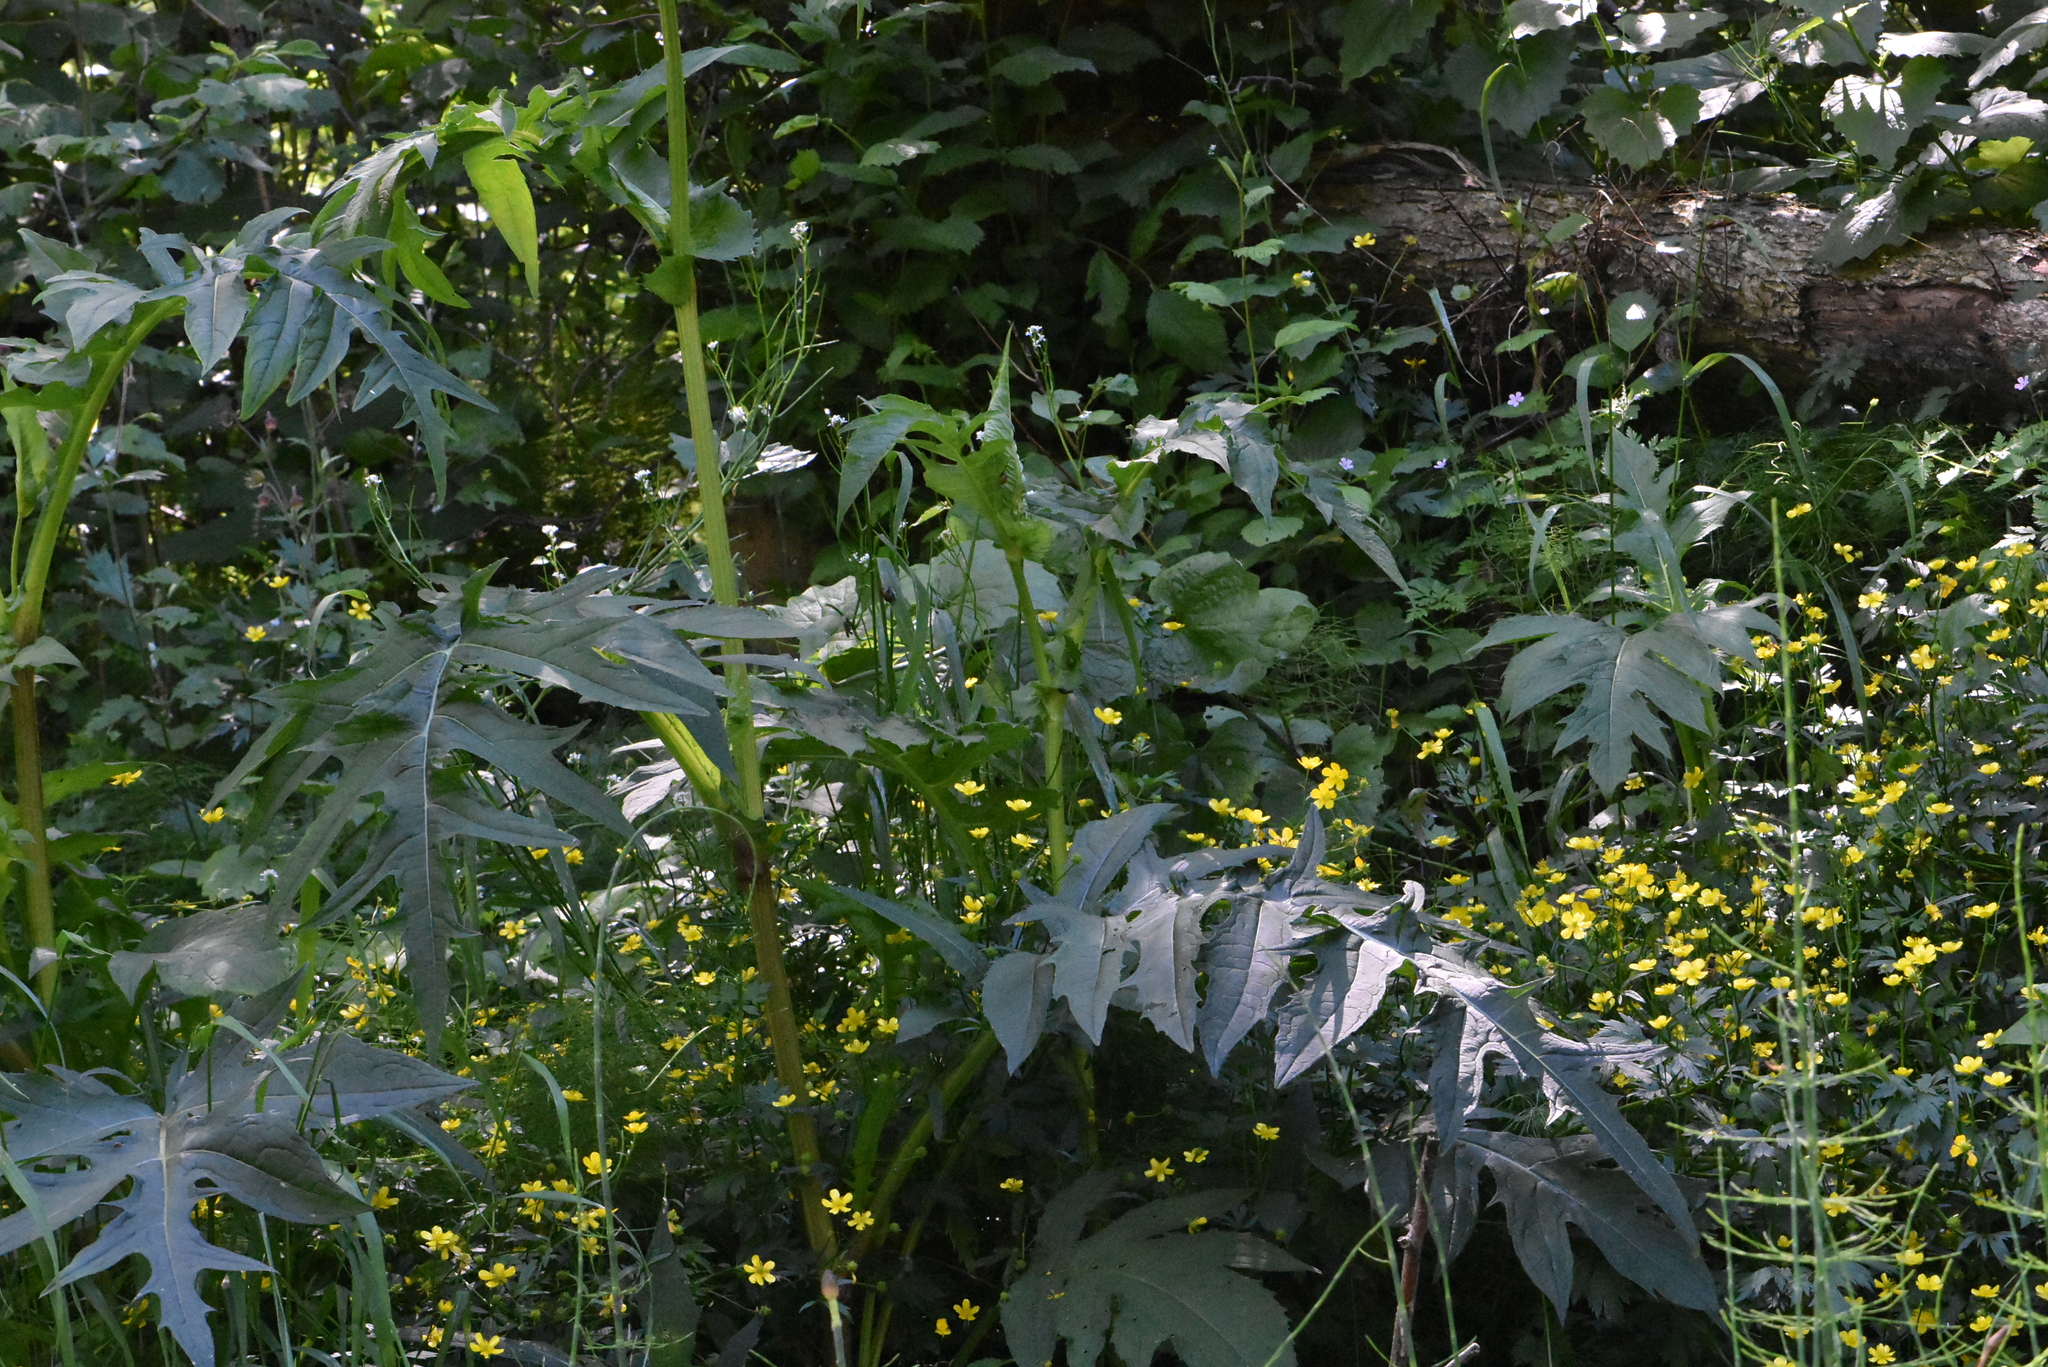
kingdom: Plantae
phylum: Tracheophyta
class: Magnoliopsida
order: Asterales
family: Asteraceae
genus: Cirsium
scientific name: Cirsium oleraceum
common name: Cabbage thistle
